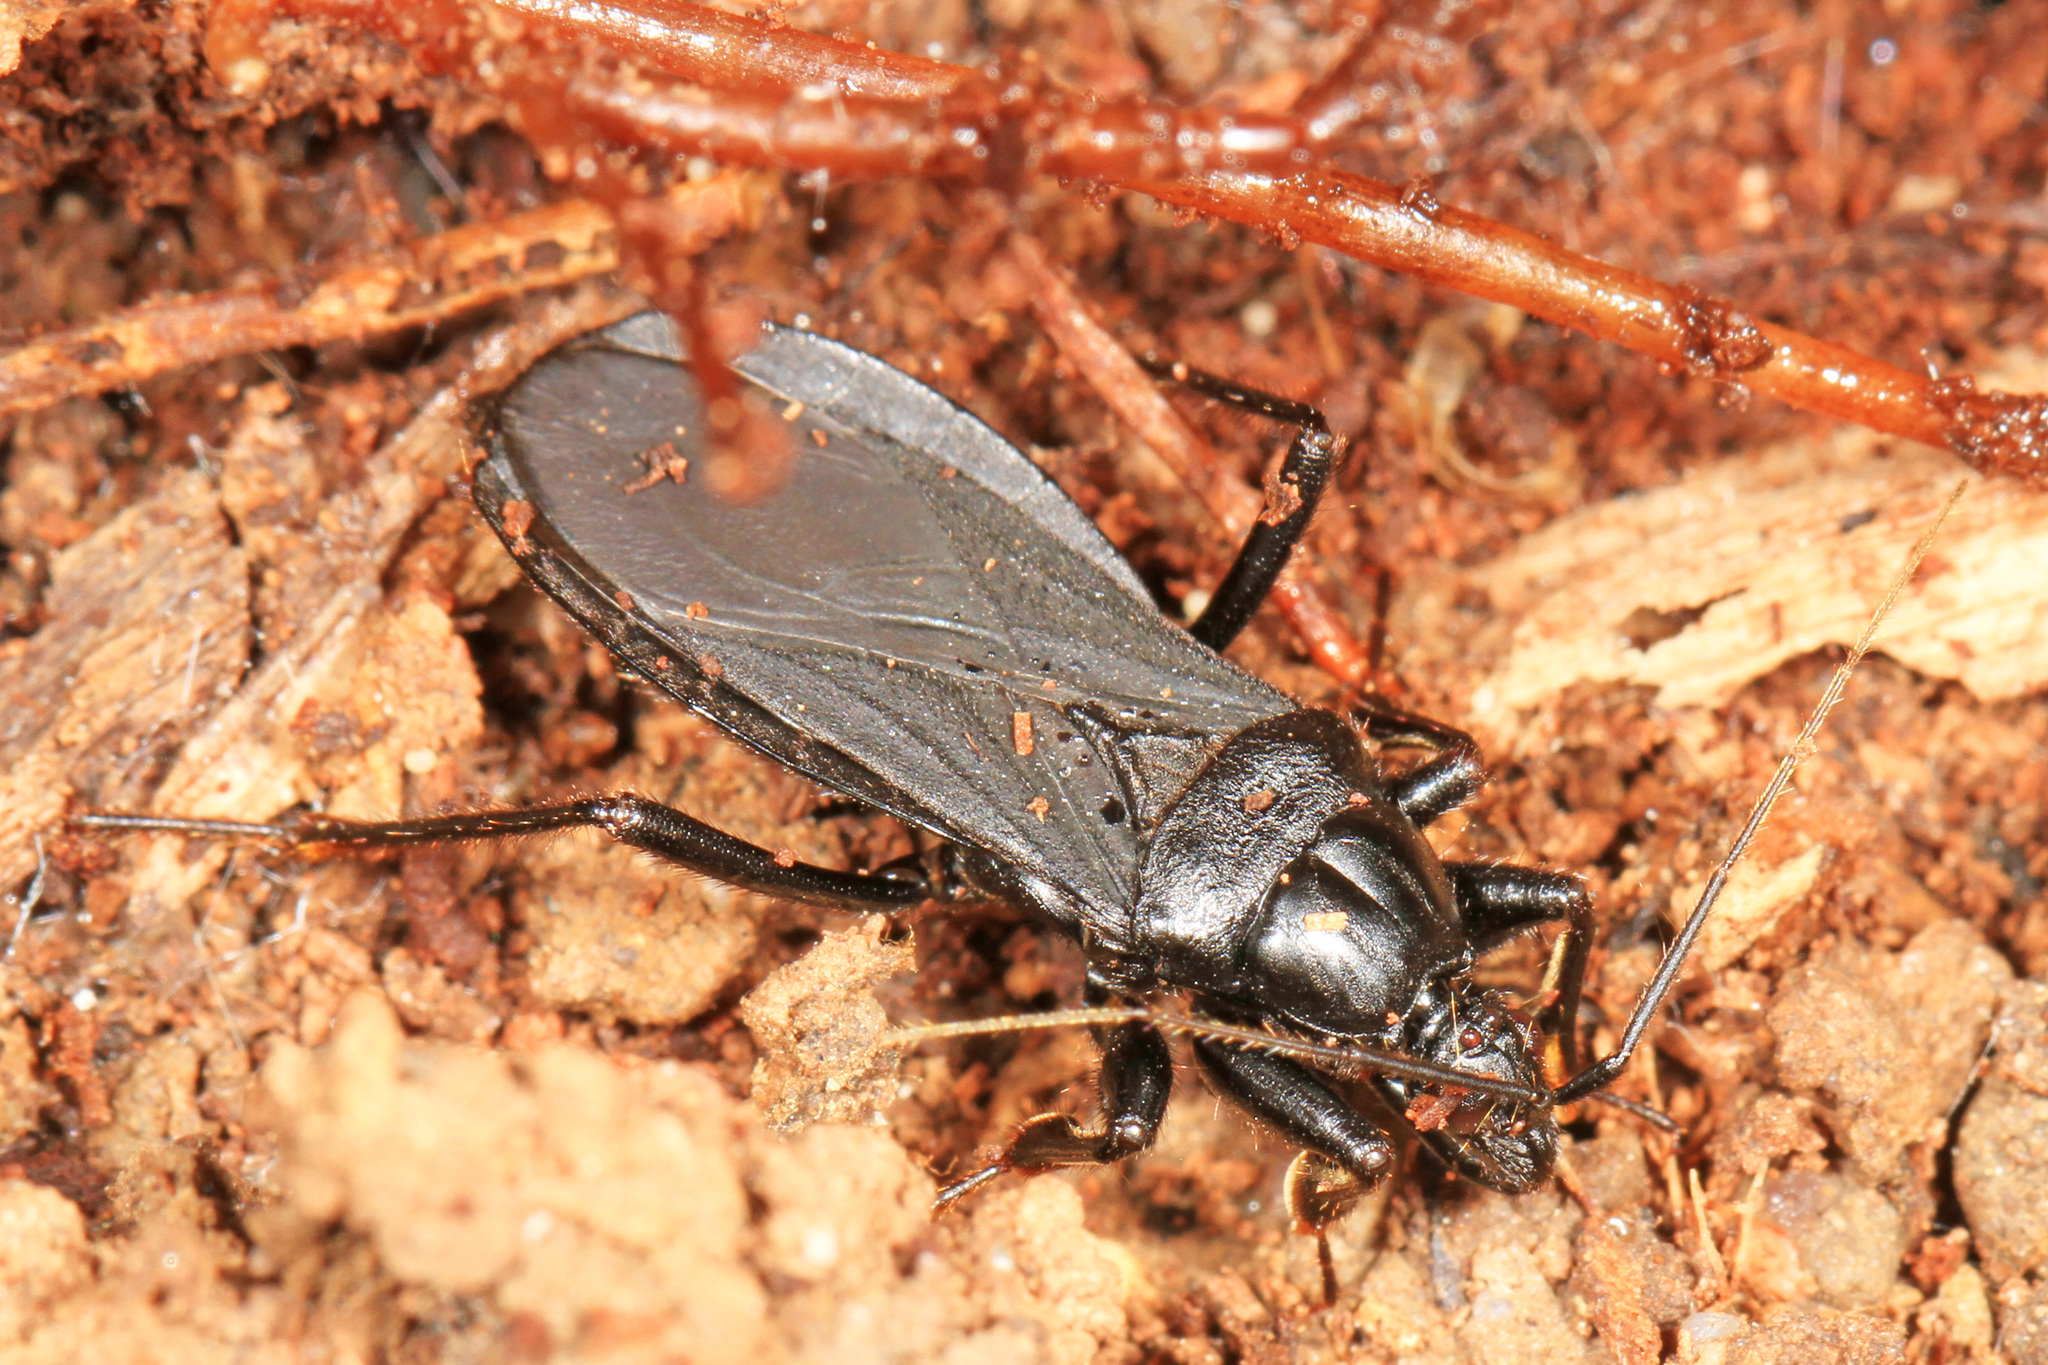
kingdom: Animalia
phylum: Arthropoda
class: Insecta
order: Hemiptera
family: Reduviidae
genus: Melanolestes
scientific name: Melanolestes picipes
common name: Assassin bug
